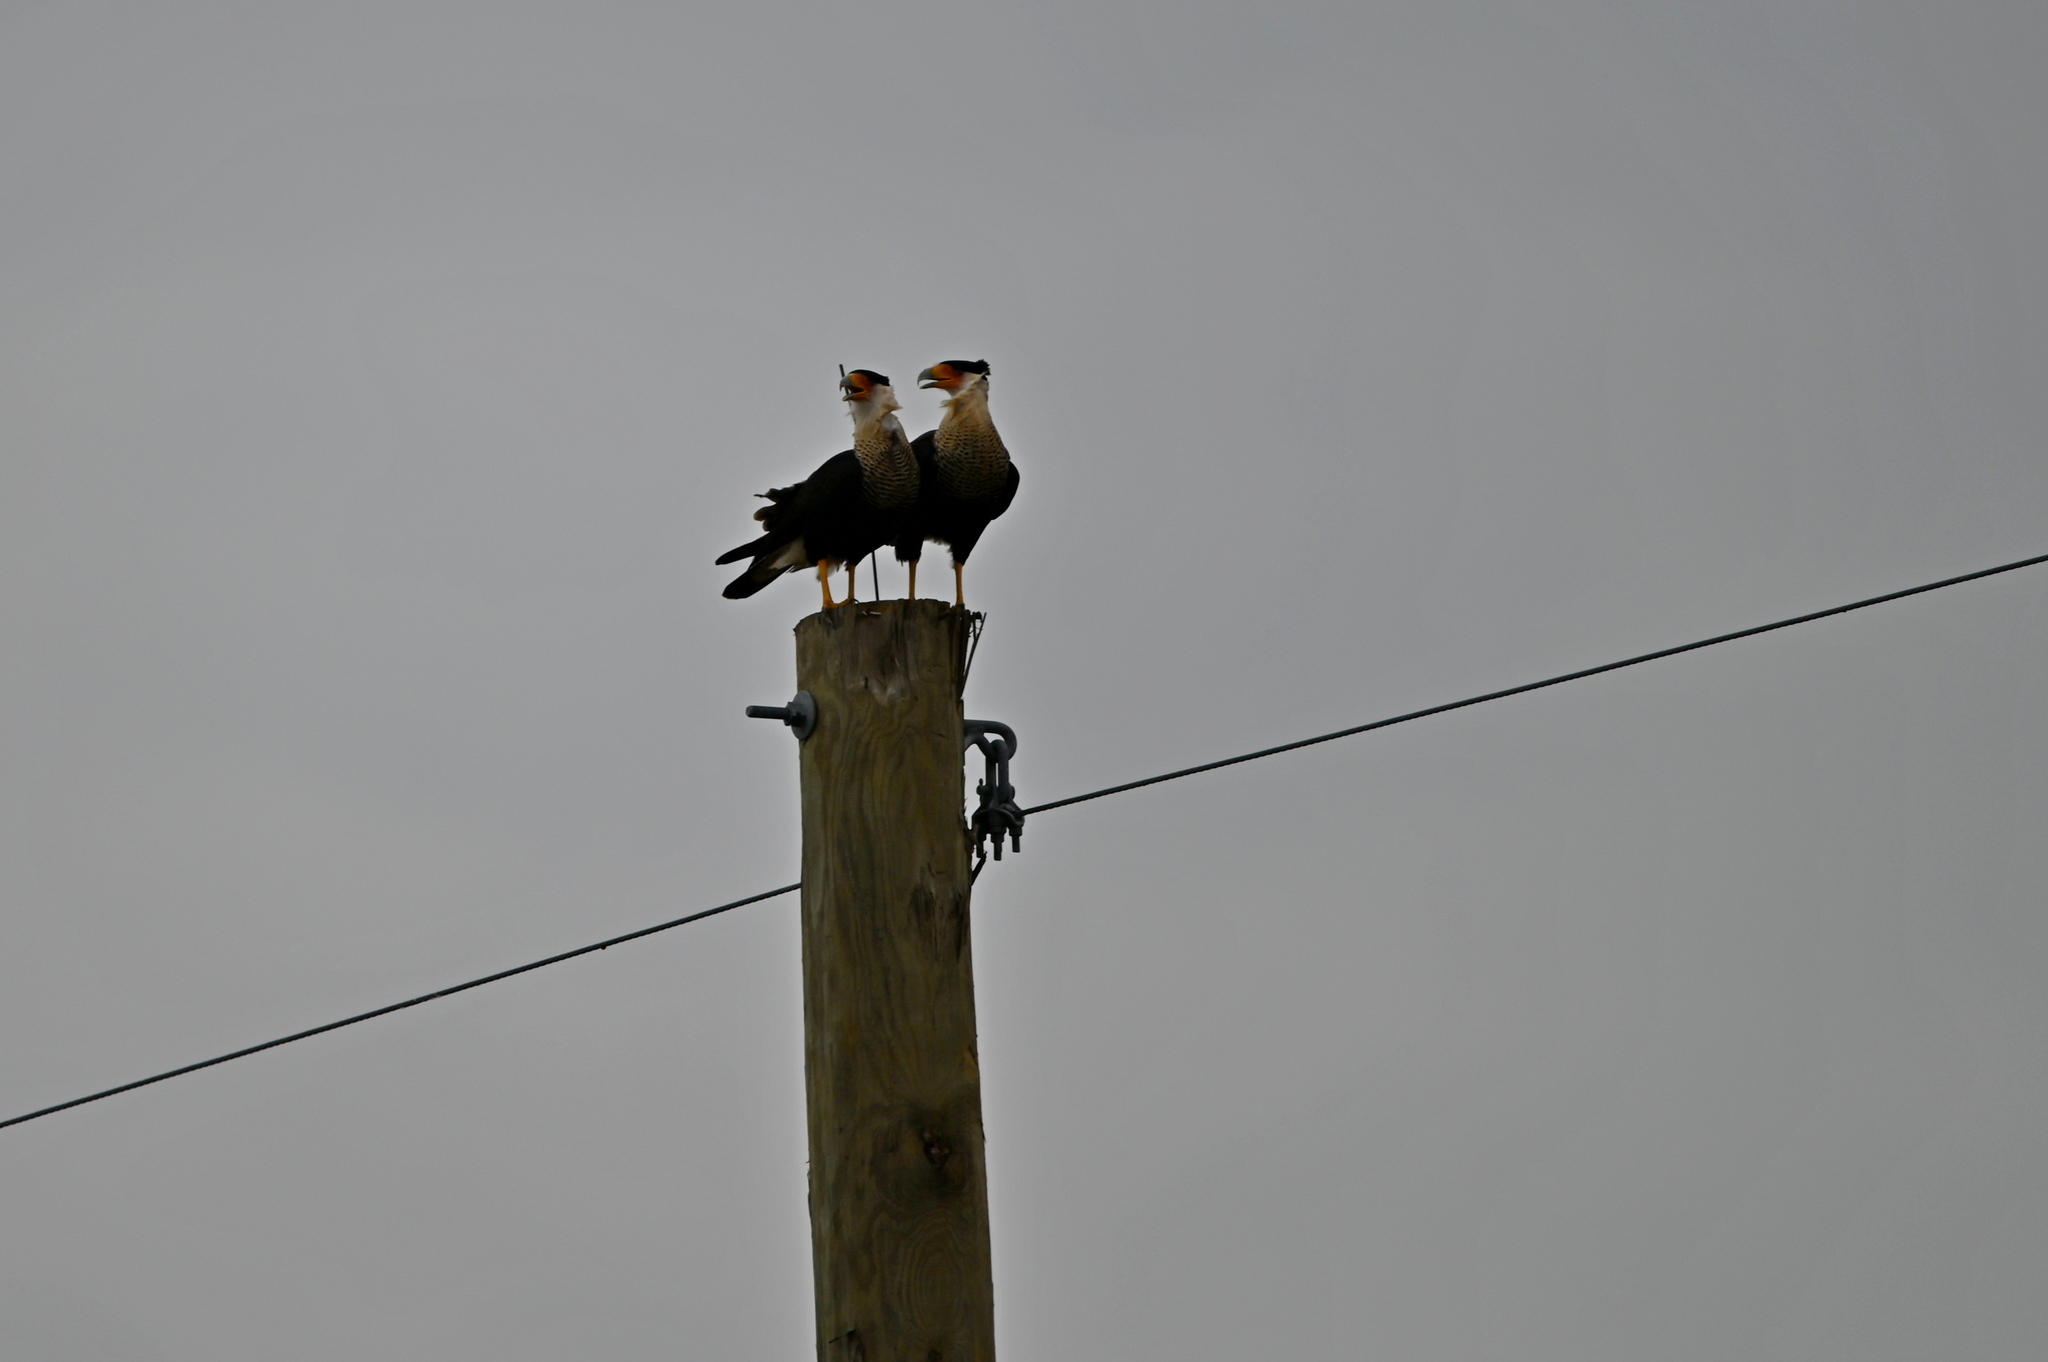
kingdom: Animalia
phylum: Chordata
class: Aves
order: Falconiformes
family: Falconidae
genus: Caracara
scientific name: Caracara plancus
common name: Southern caracara
